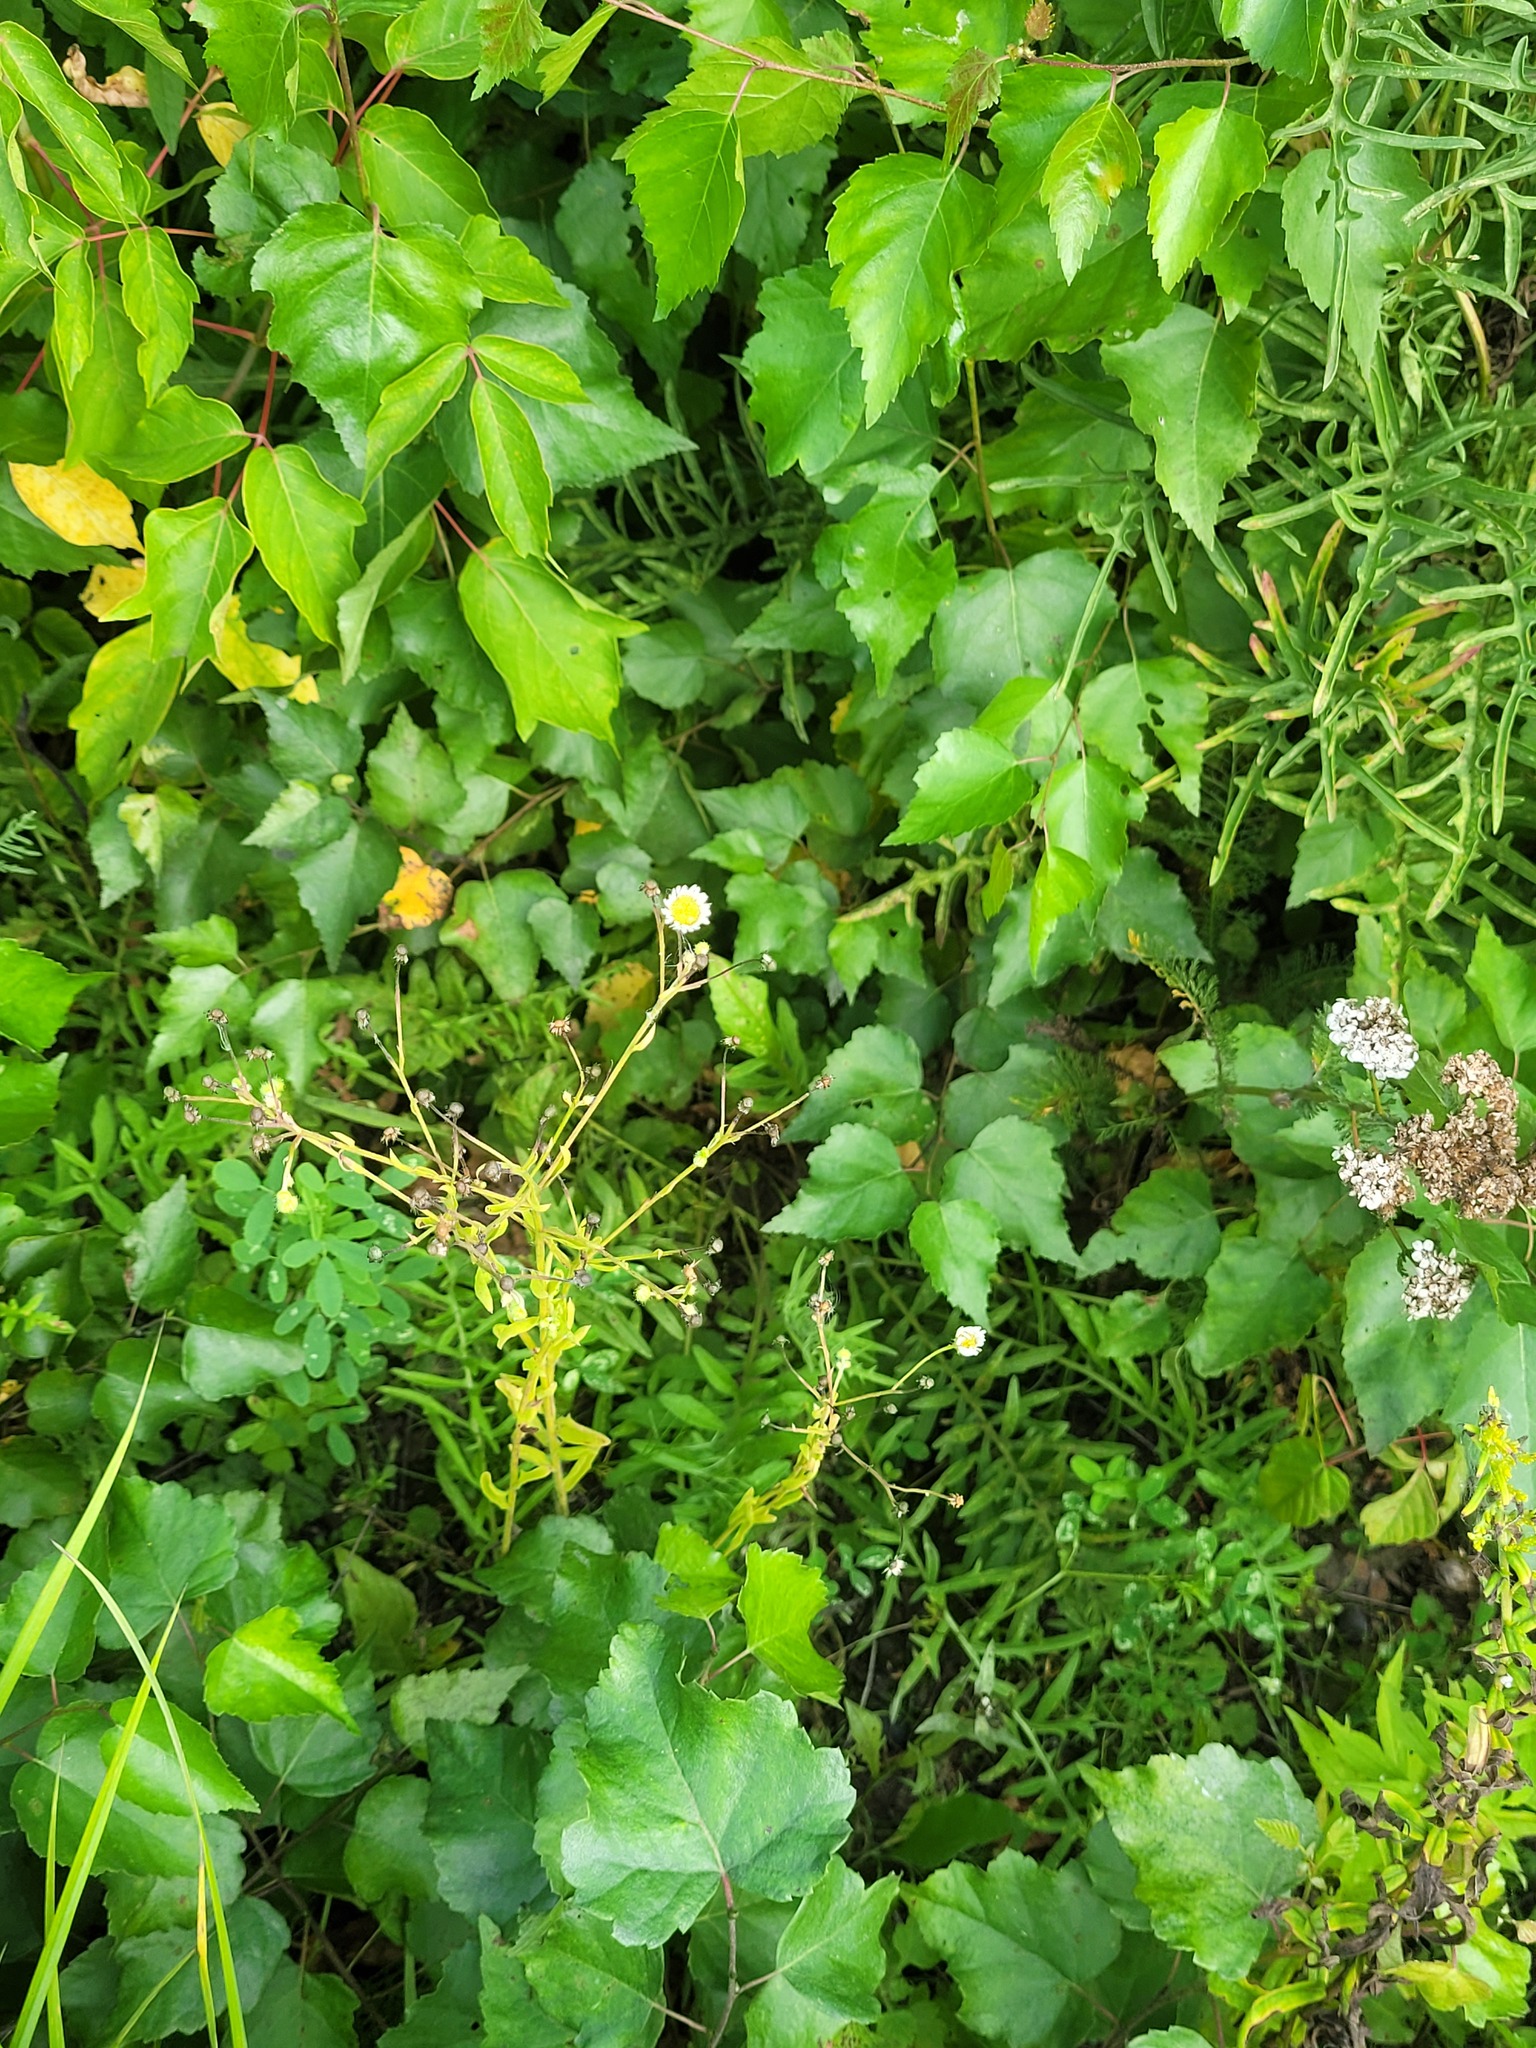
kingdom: Plantae
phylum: Tracheophyta
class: Magnoliopsida
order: Asterales
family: Asteraceae
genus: Erigeron
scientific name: Erigeron annuus
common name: Tall fleabane
